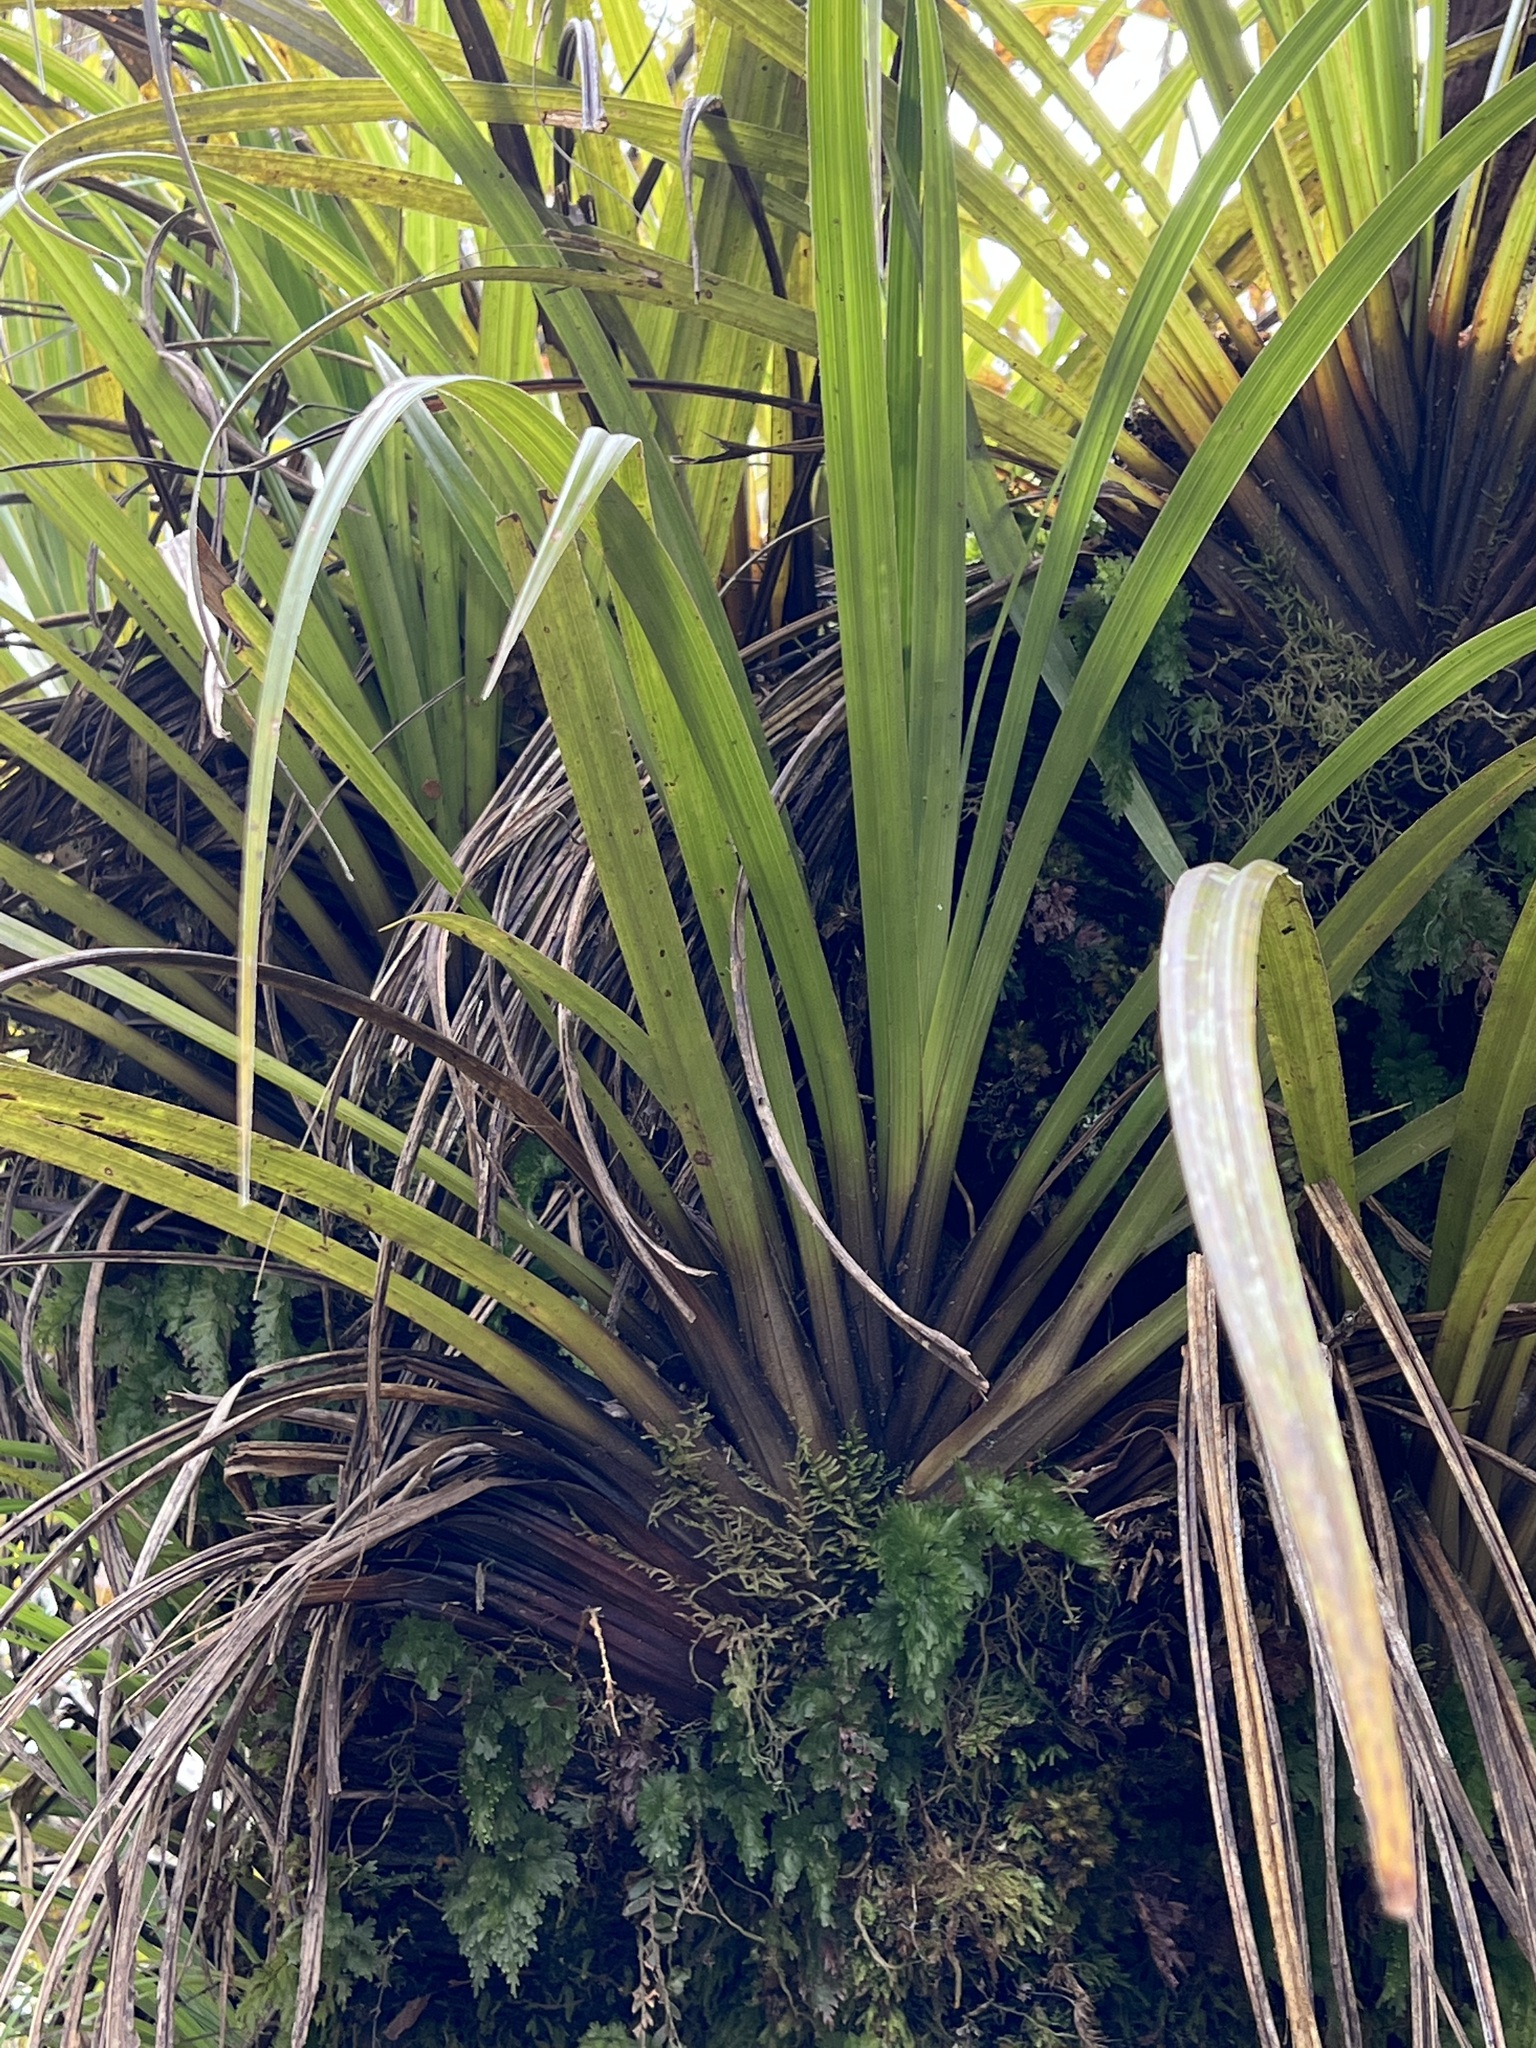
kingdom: Plantae
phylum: Tracheophyta
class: Liliopsida
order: Asparagales
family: Asteliaceae
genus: Astelia
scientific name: Astelia microsperma
